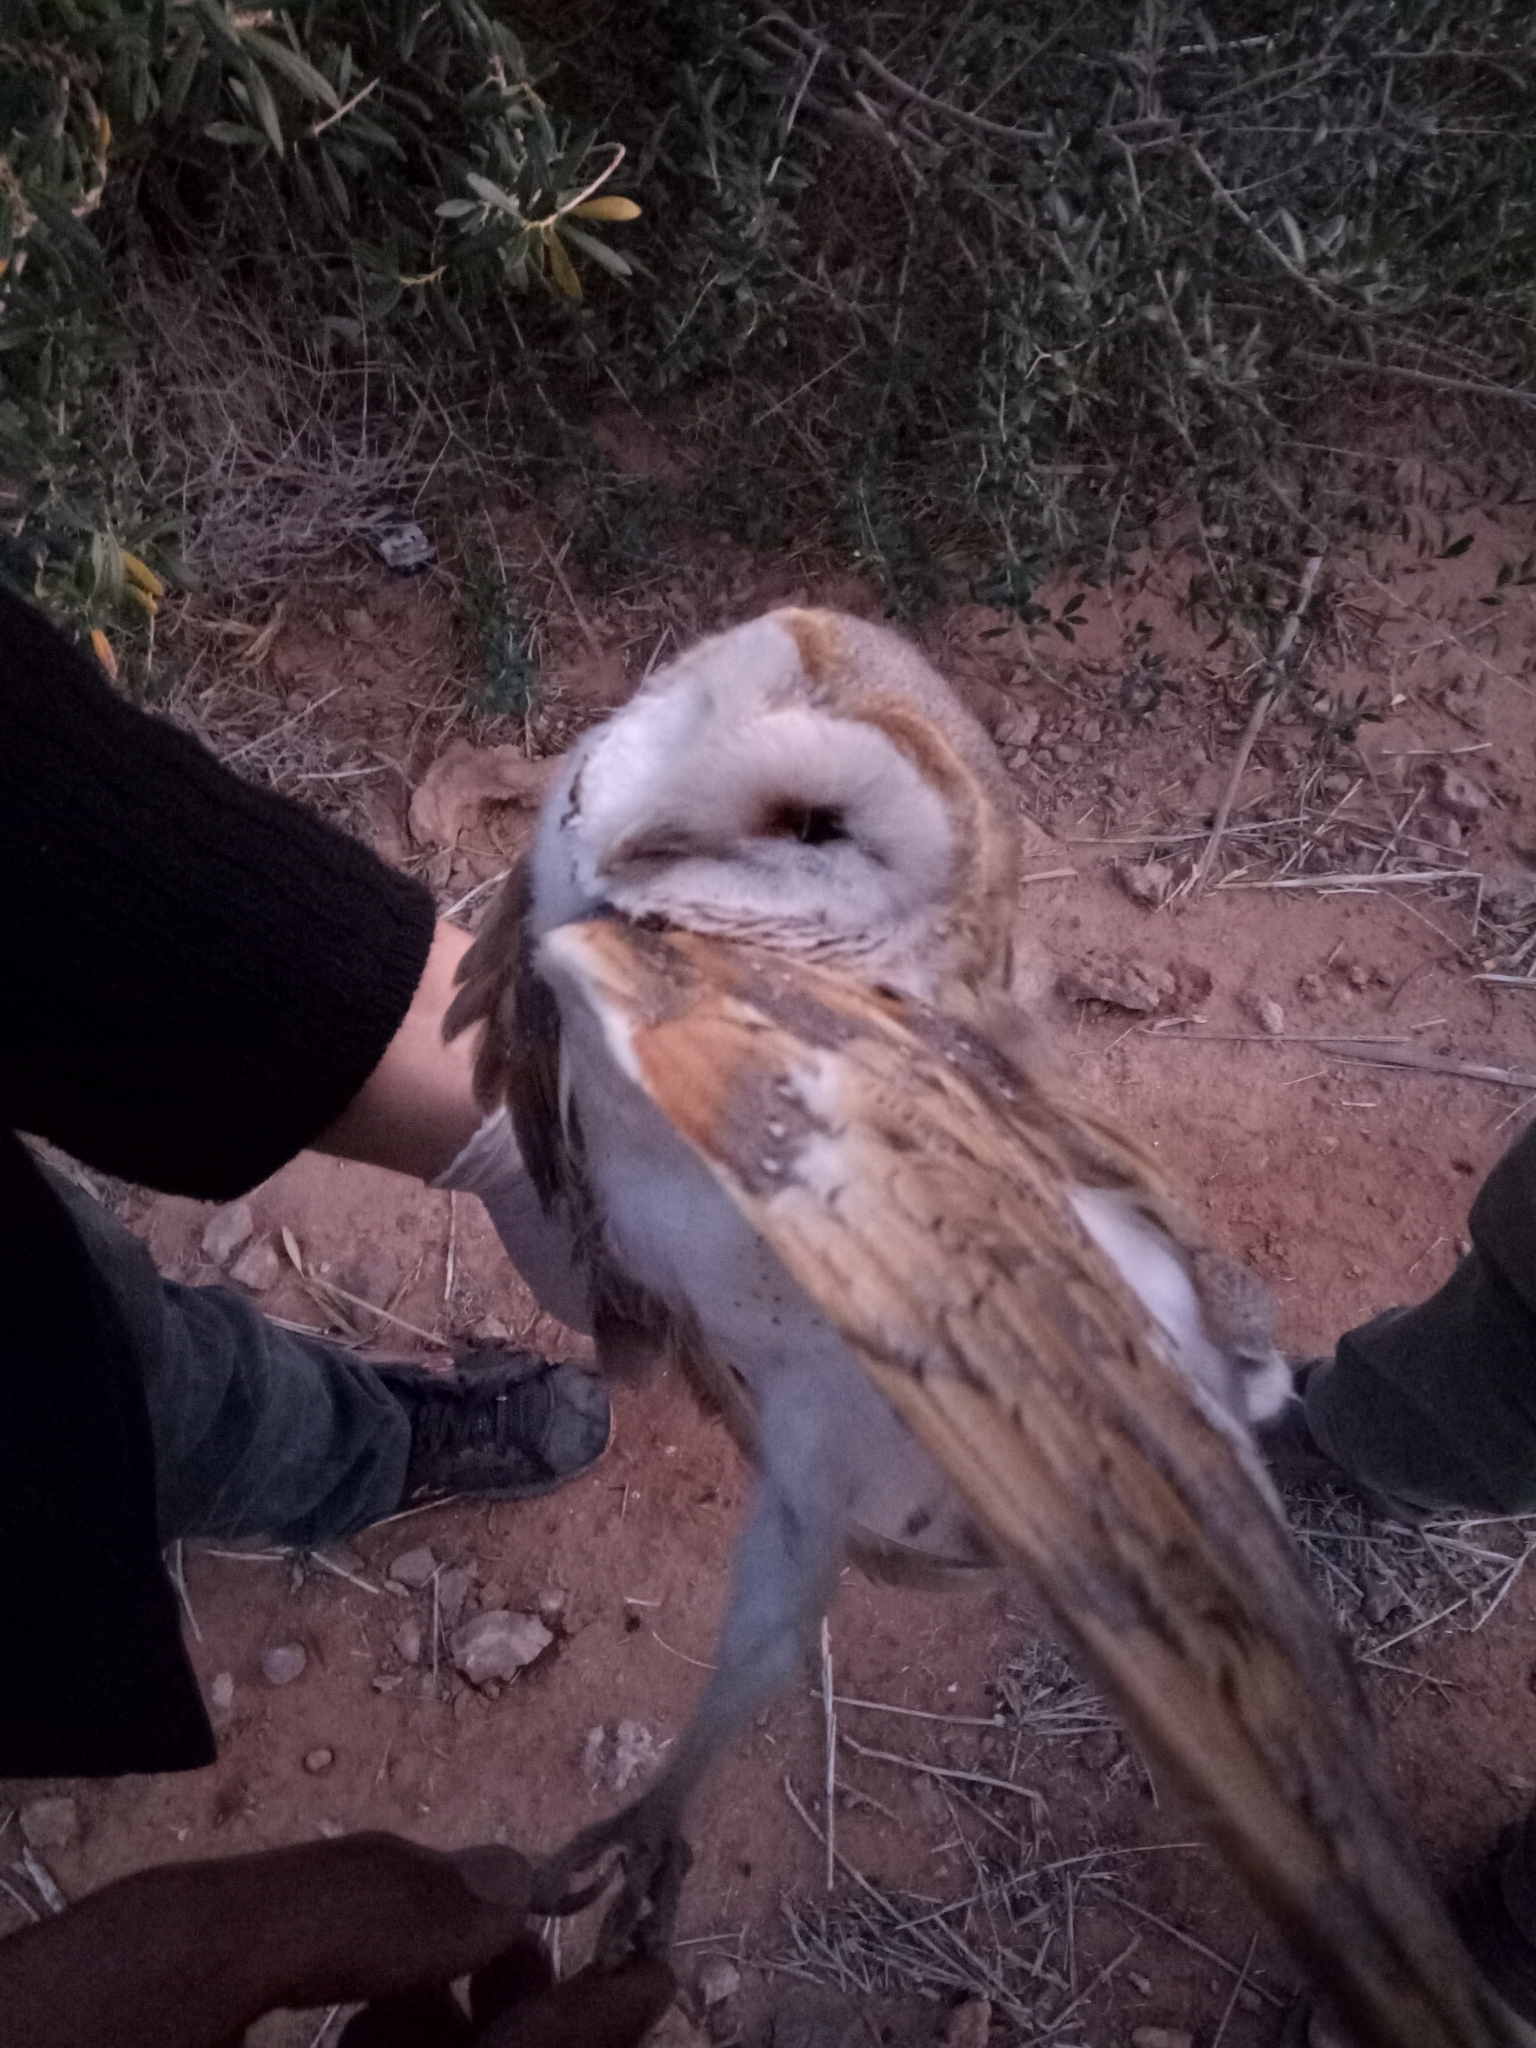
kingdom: Animalia
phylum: Chordata
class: Aves
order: Strigiformes
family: Tytonidae
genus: Tyto
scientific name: Tyto alba
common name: Barn owl
